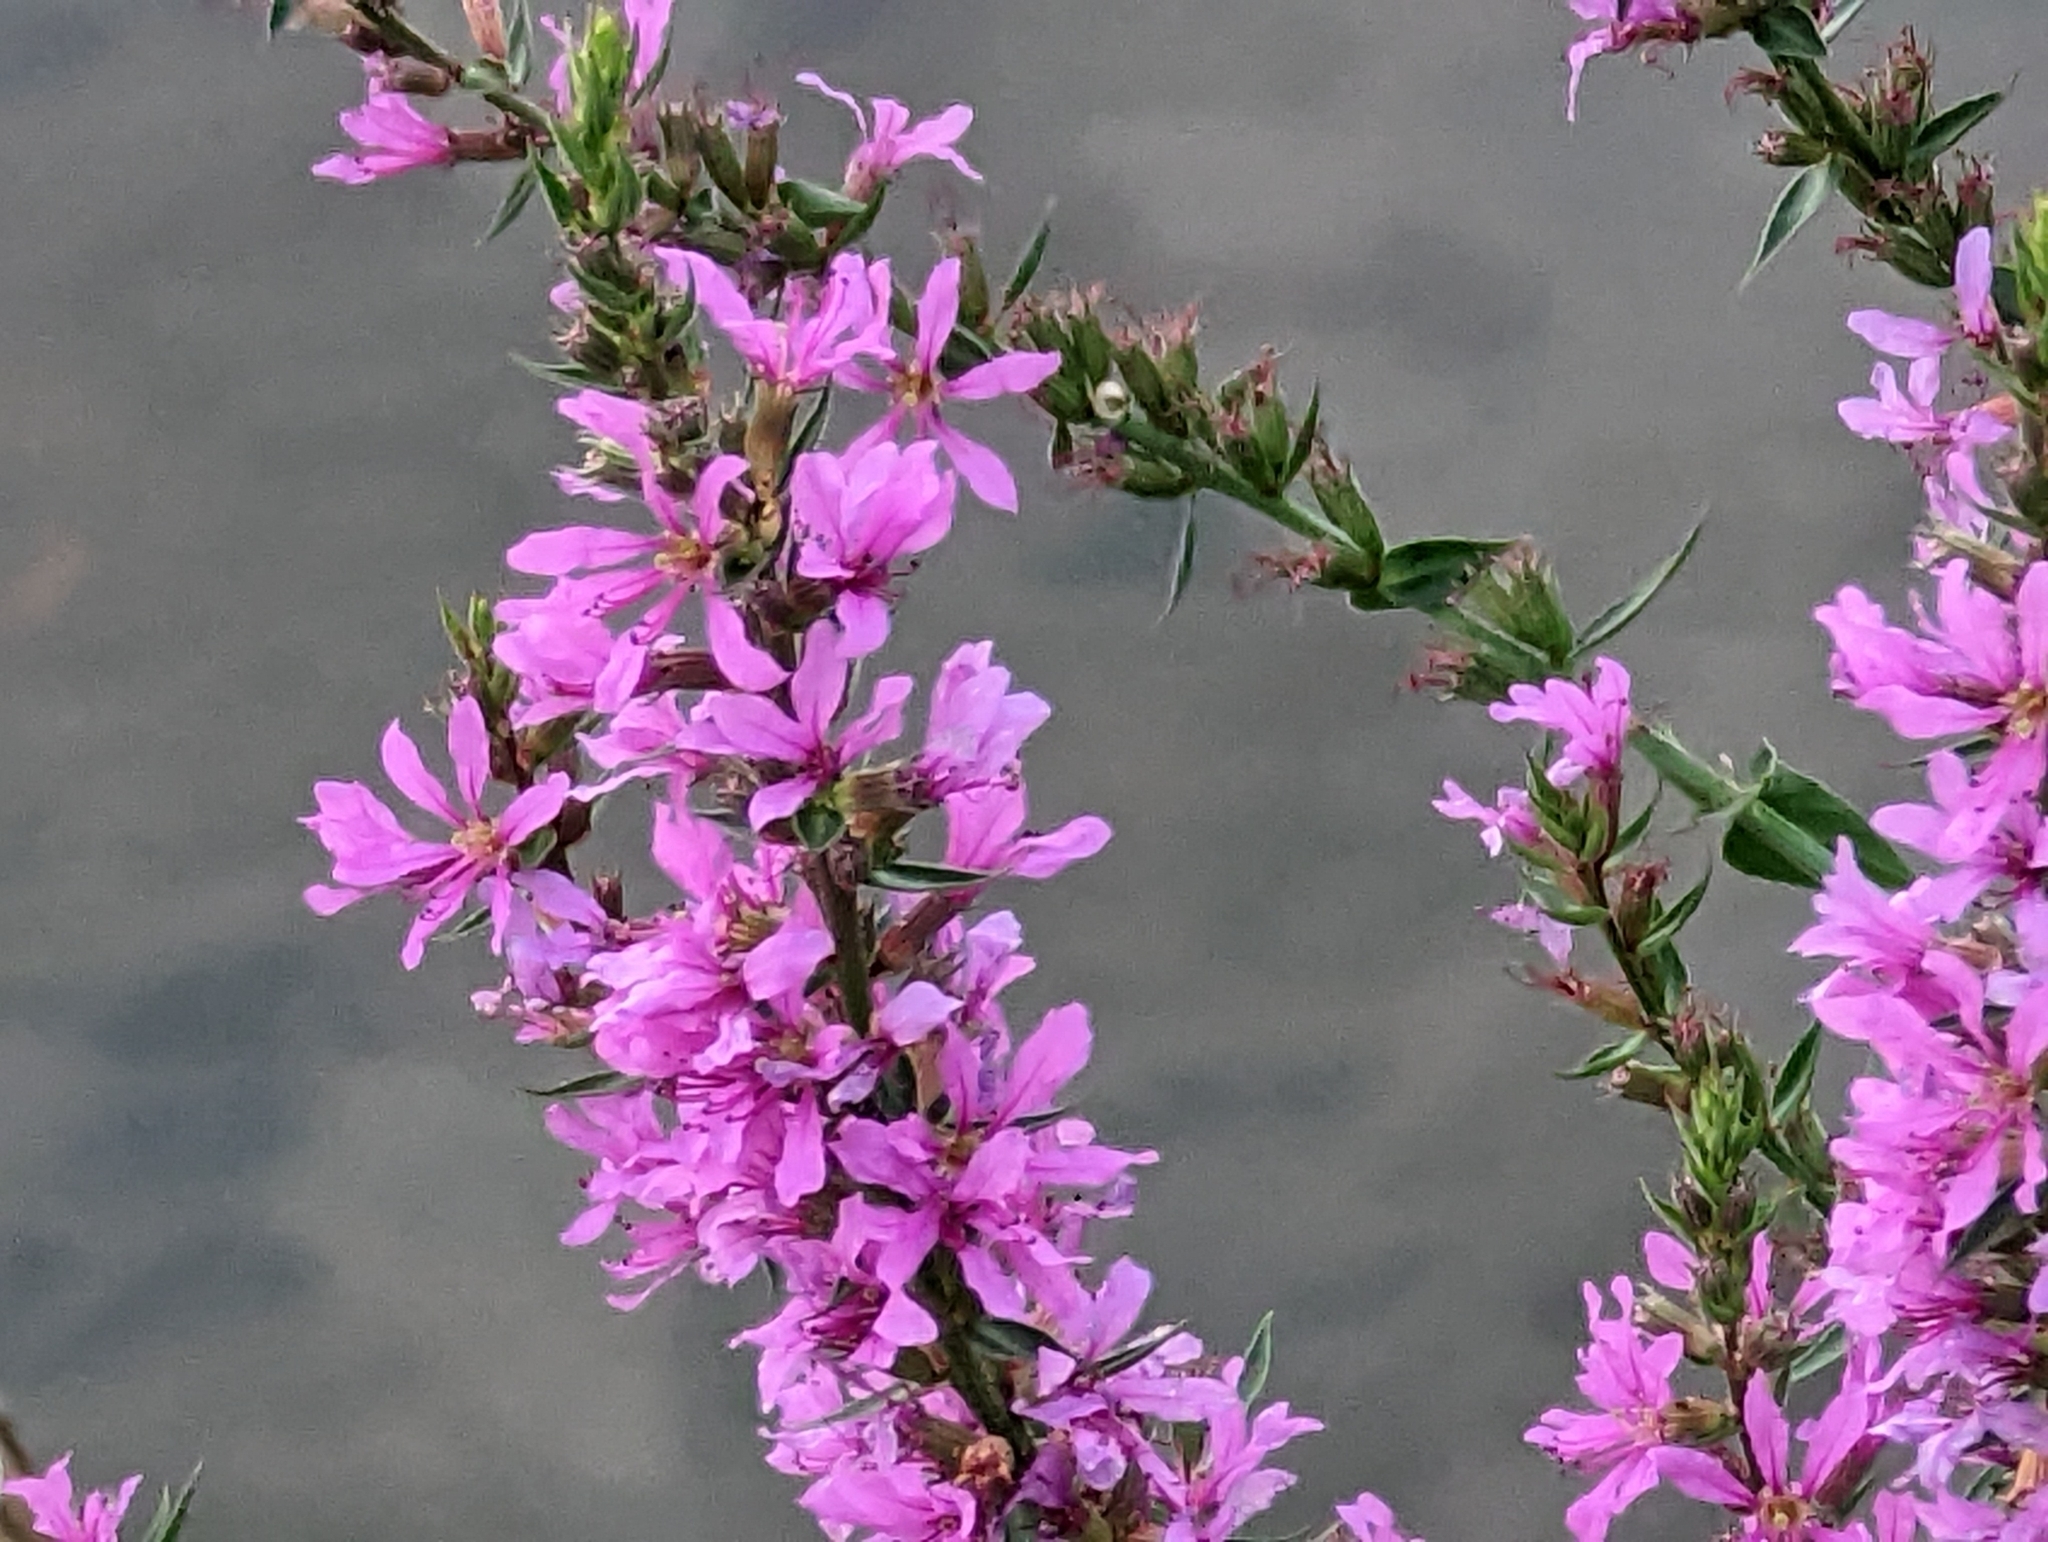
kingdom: Plantae
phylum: Tracheophyta
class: Magnoliopsida
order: Myrtales
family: Lythraceae
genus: Lythrum
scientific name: Lythrum salicaria
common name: Purple loosestrife
